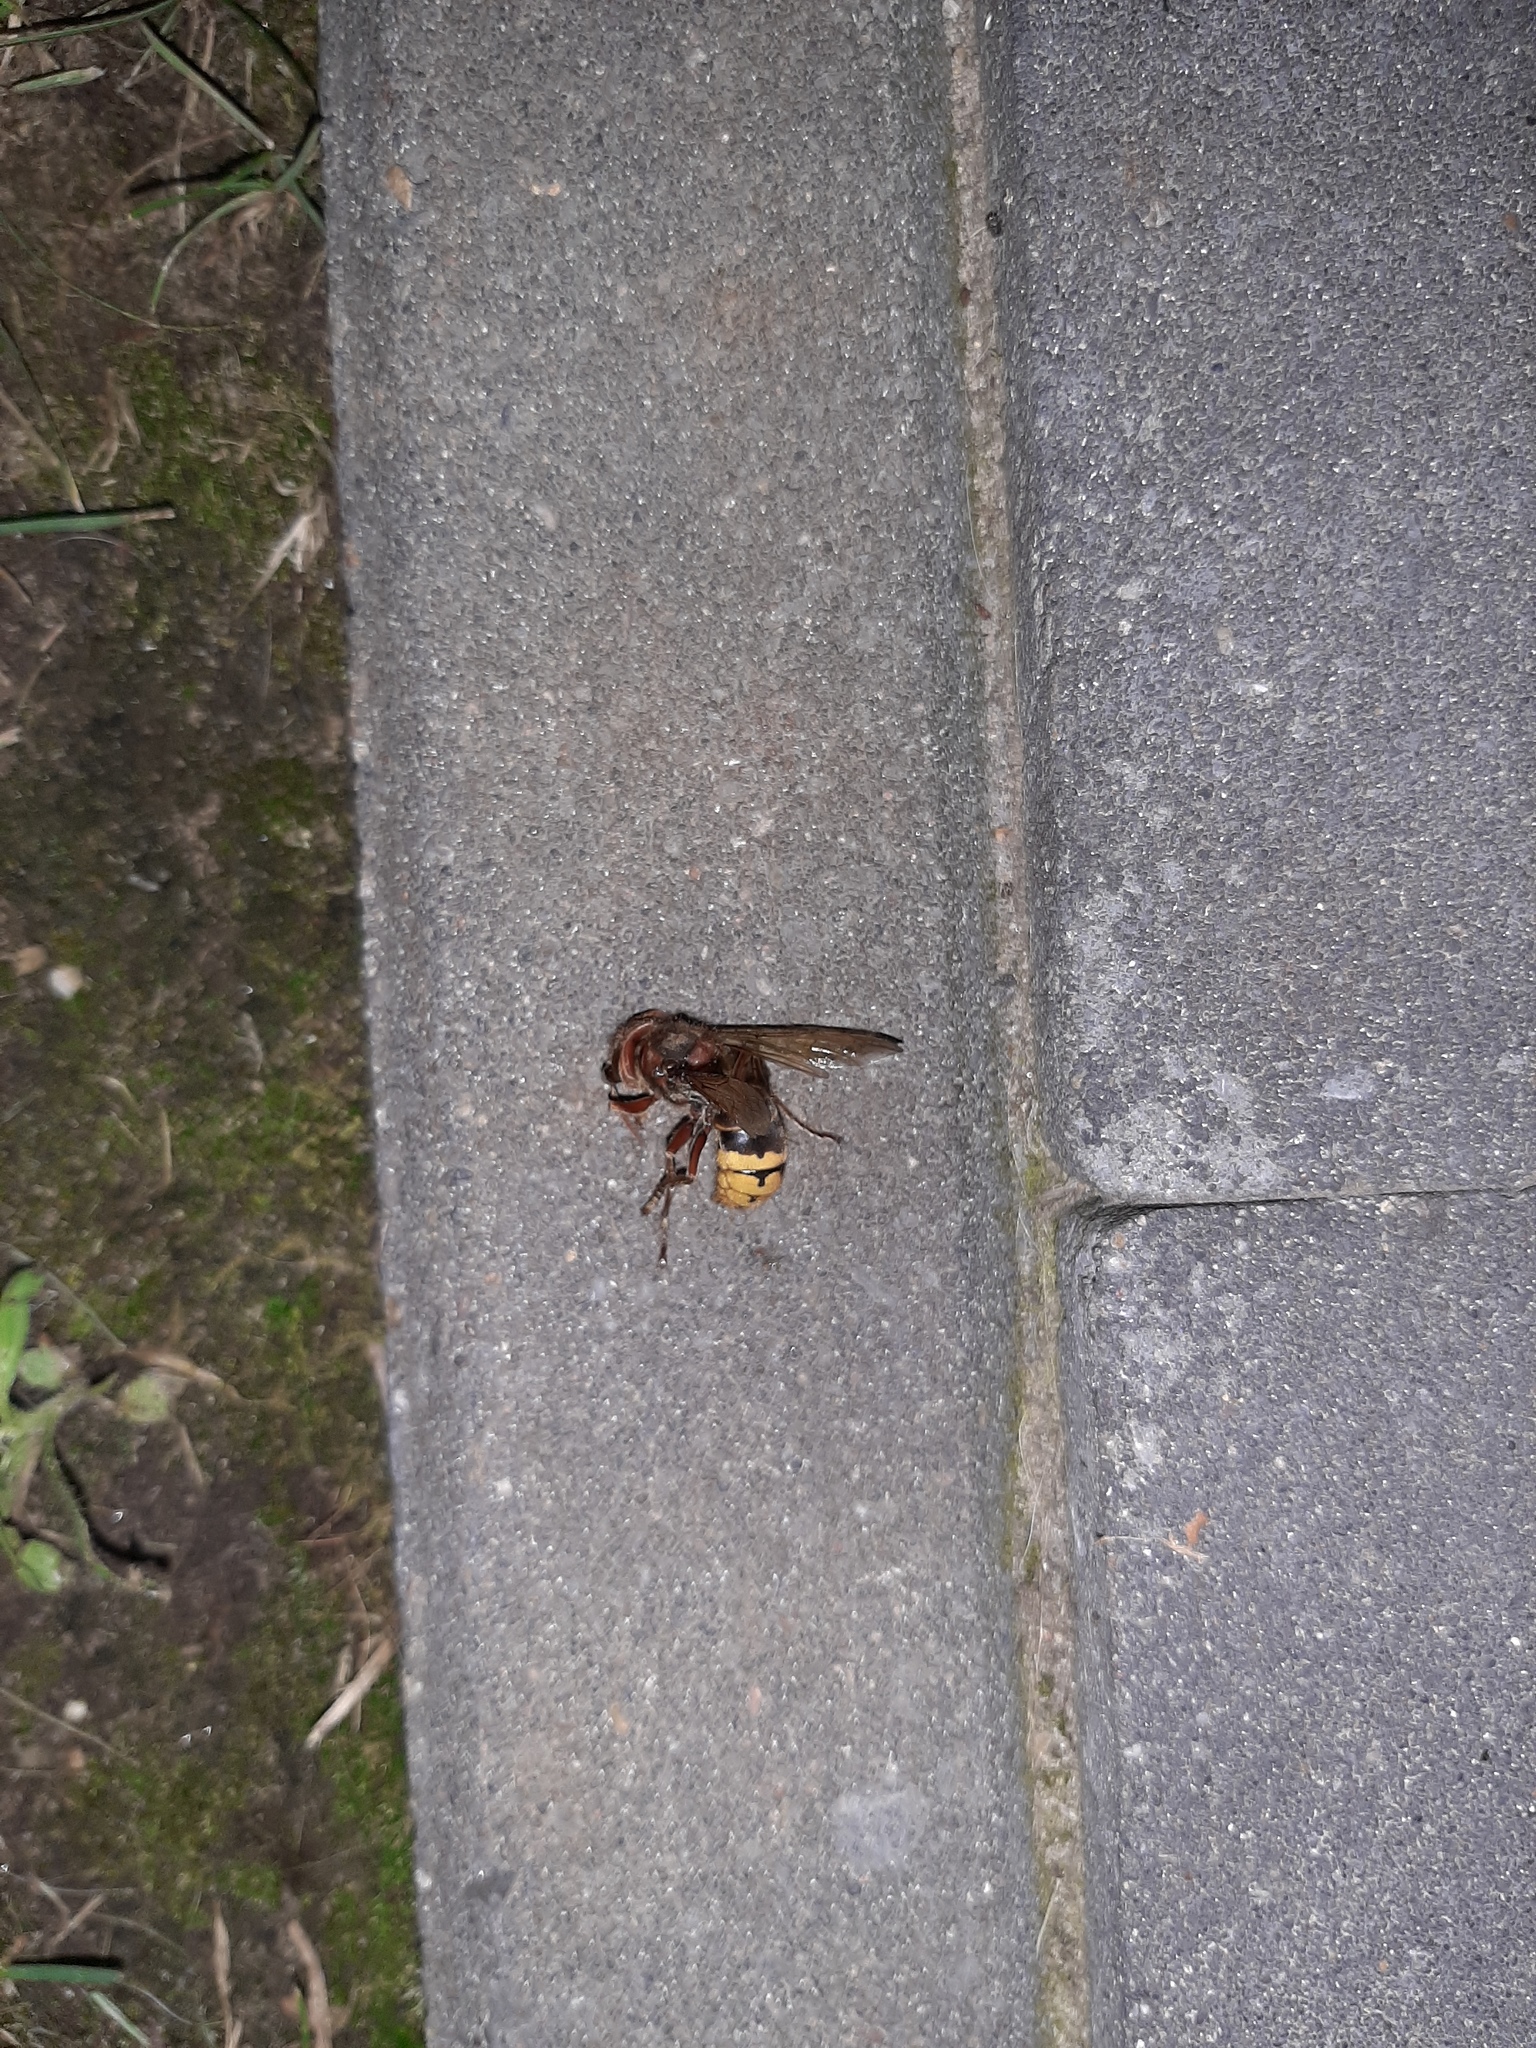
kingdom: Animalia
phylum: Arthropoda
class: Insecta
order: Hymenoptera
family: Vespidae
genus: Vespa
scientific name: Vespa crabro
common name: Hornet
